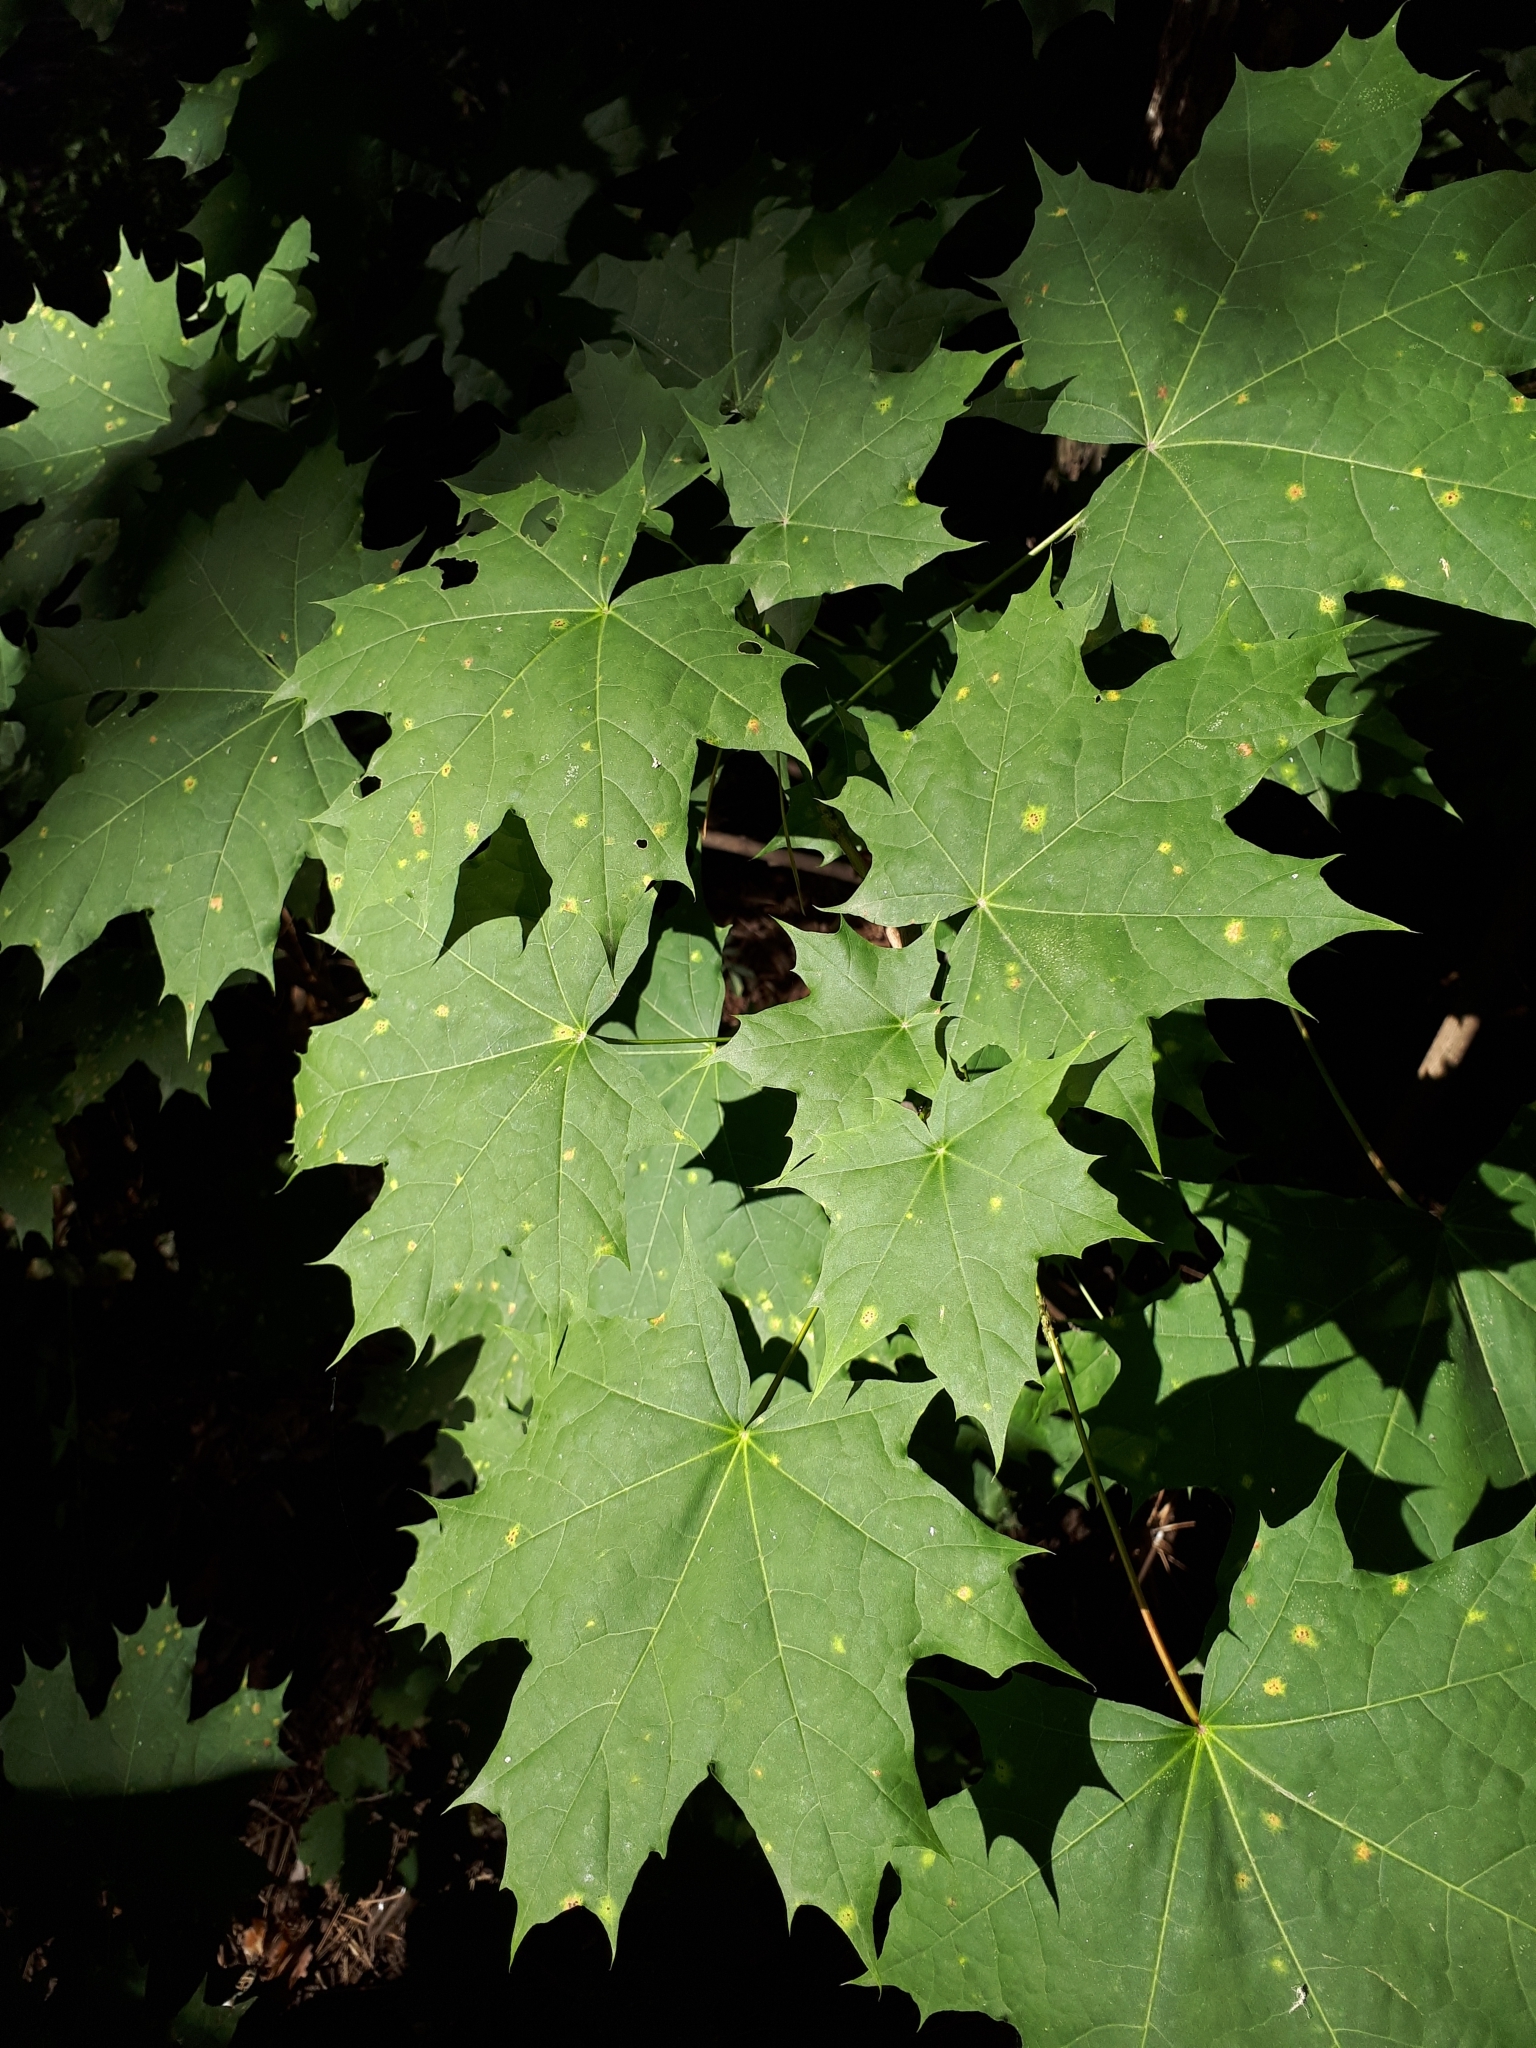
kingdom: Plantae
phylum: Tracheophyta
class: Magnoliopsida
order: Sapindales
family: Sapindaceae
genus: Acer
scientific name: Acer platanoides
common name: Norway maple
